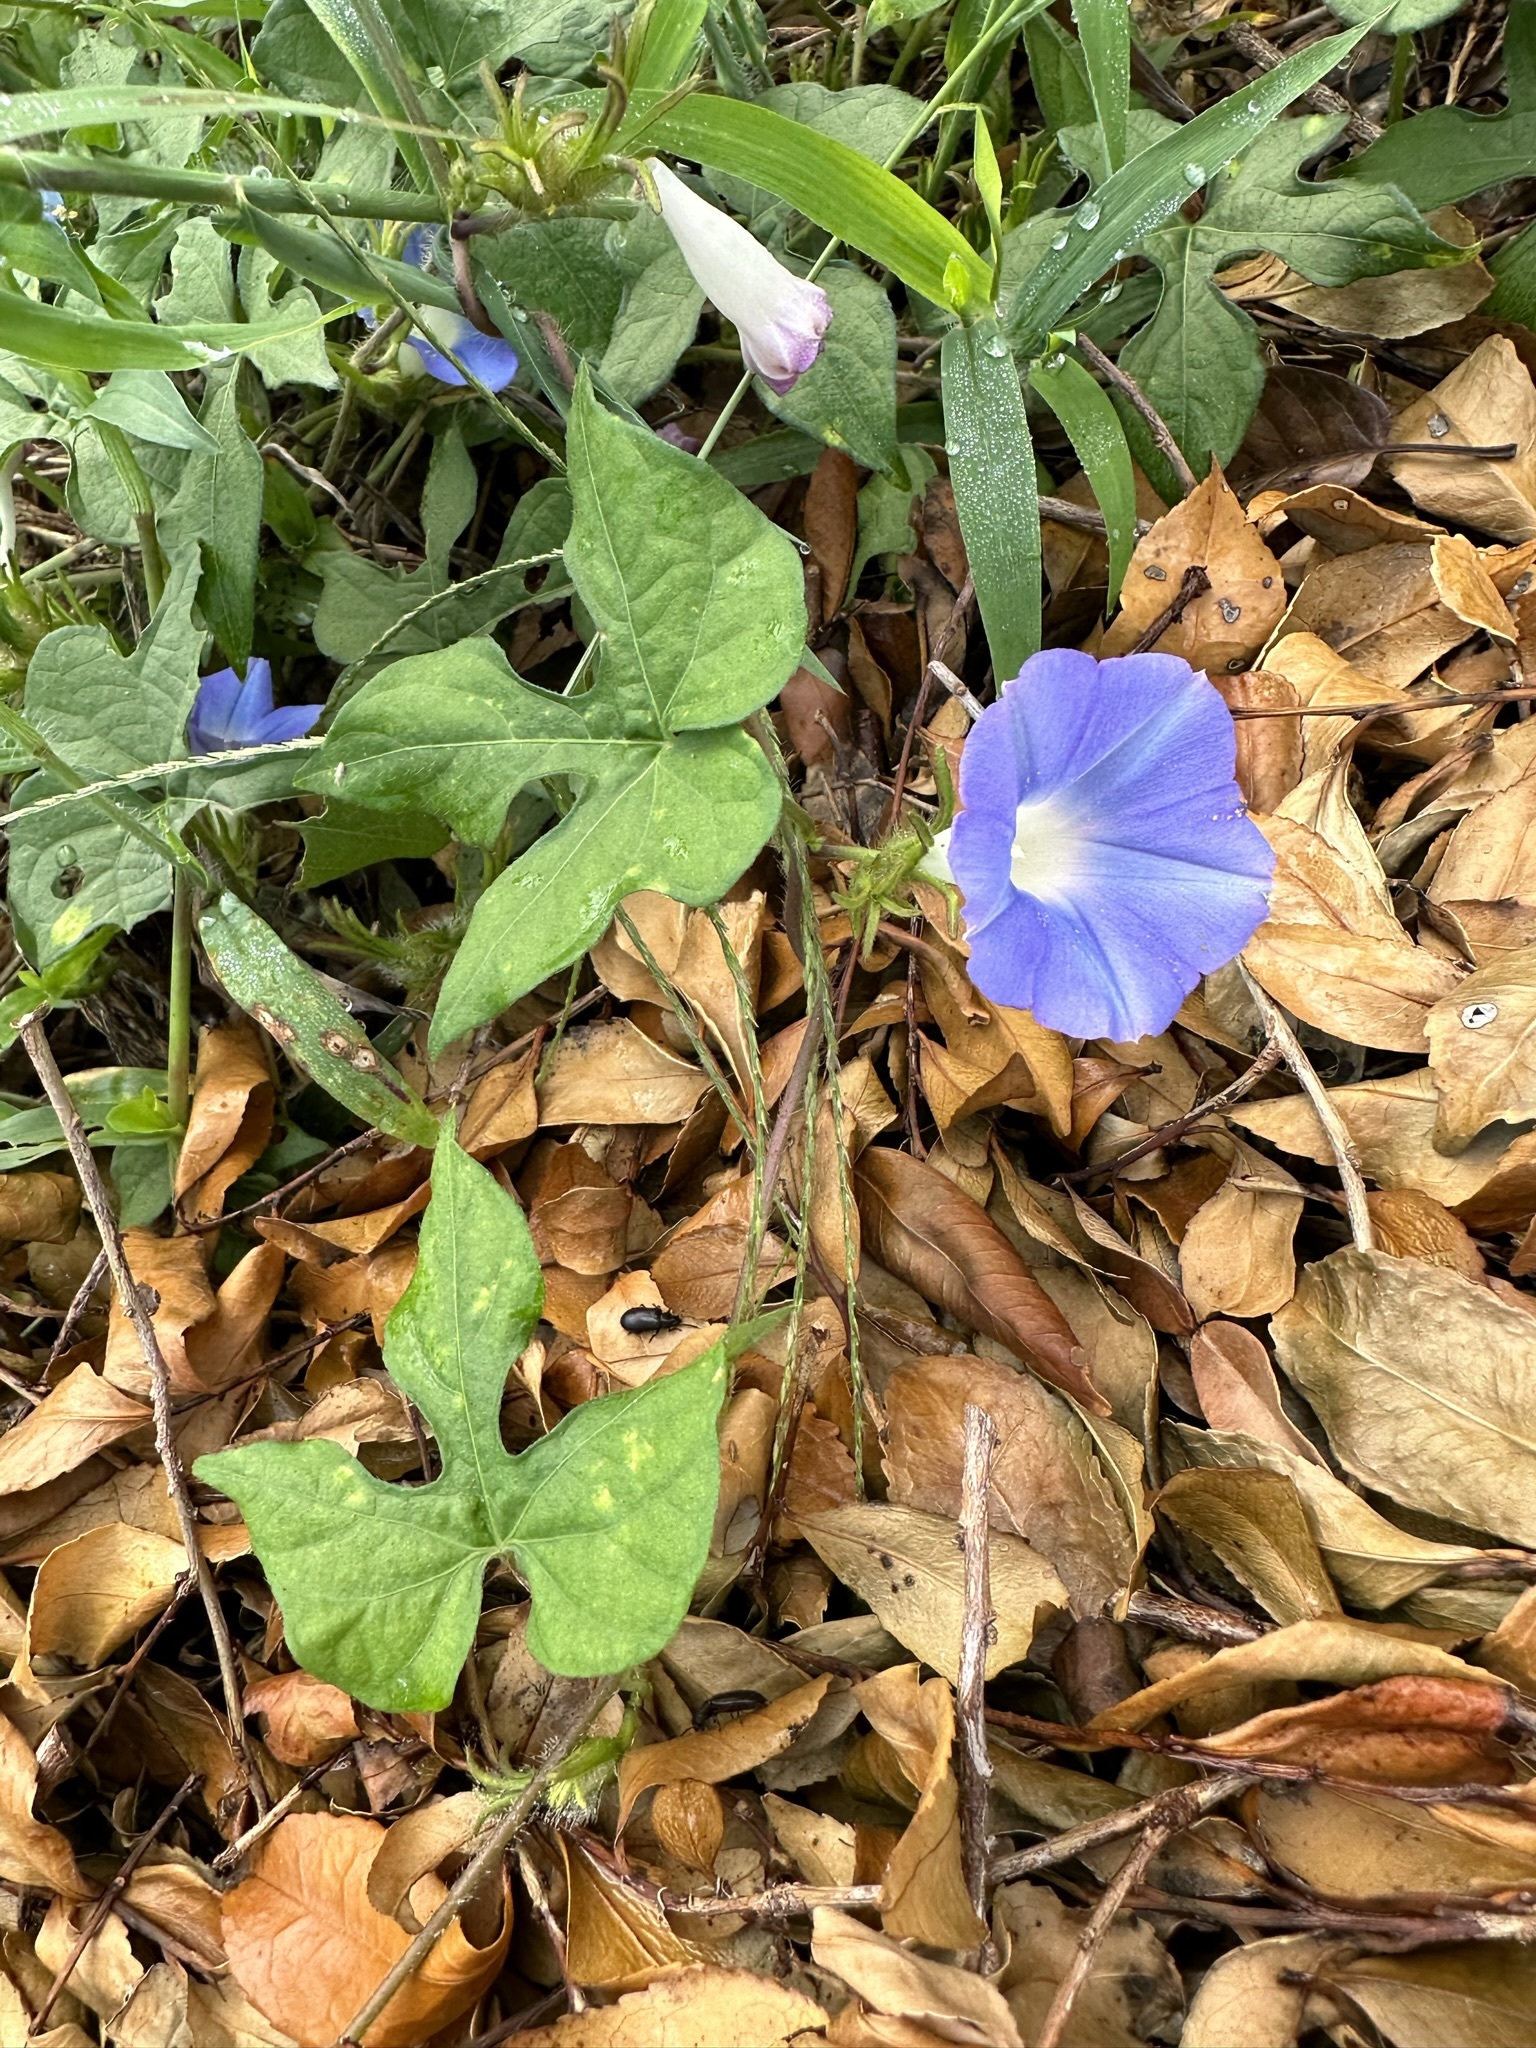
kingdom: Plantae
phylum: Tracheophyta
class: Magnoliopsida
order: Solanales
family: Convolvulaceae
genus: Ipomoea
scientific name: Ipomoea hederacea
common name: Ivy-leaved morning-glory
